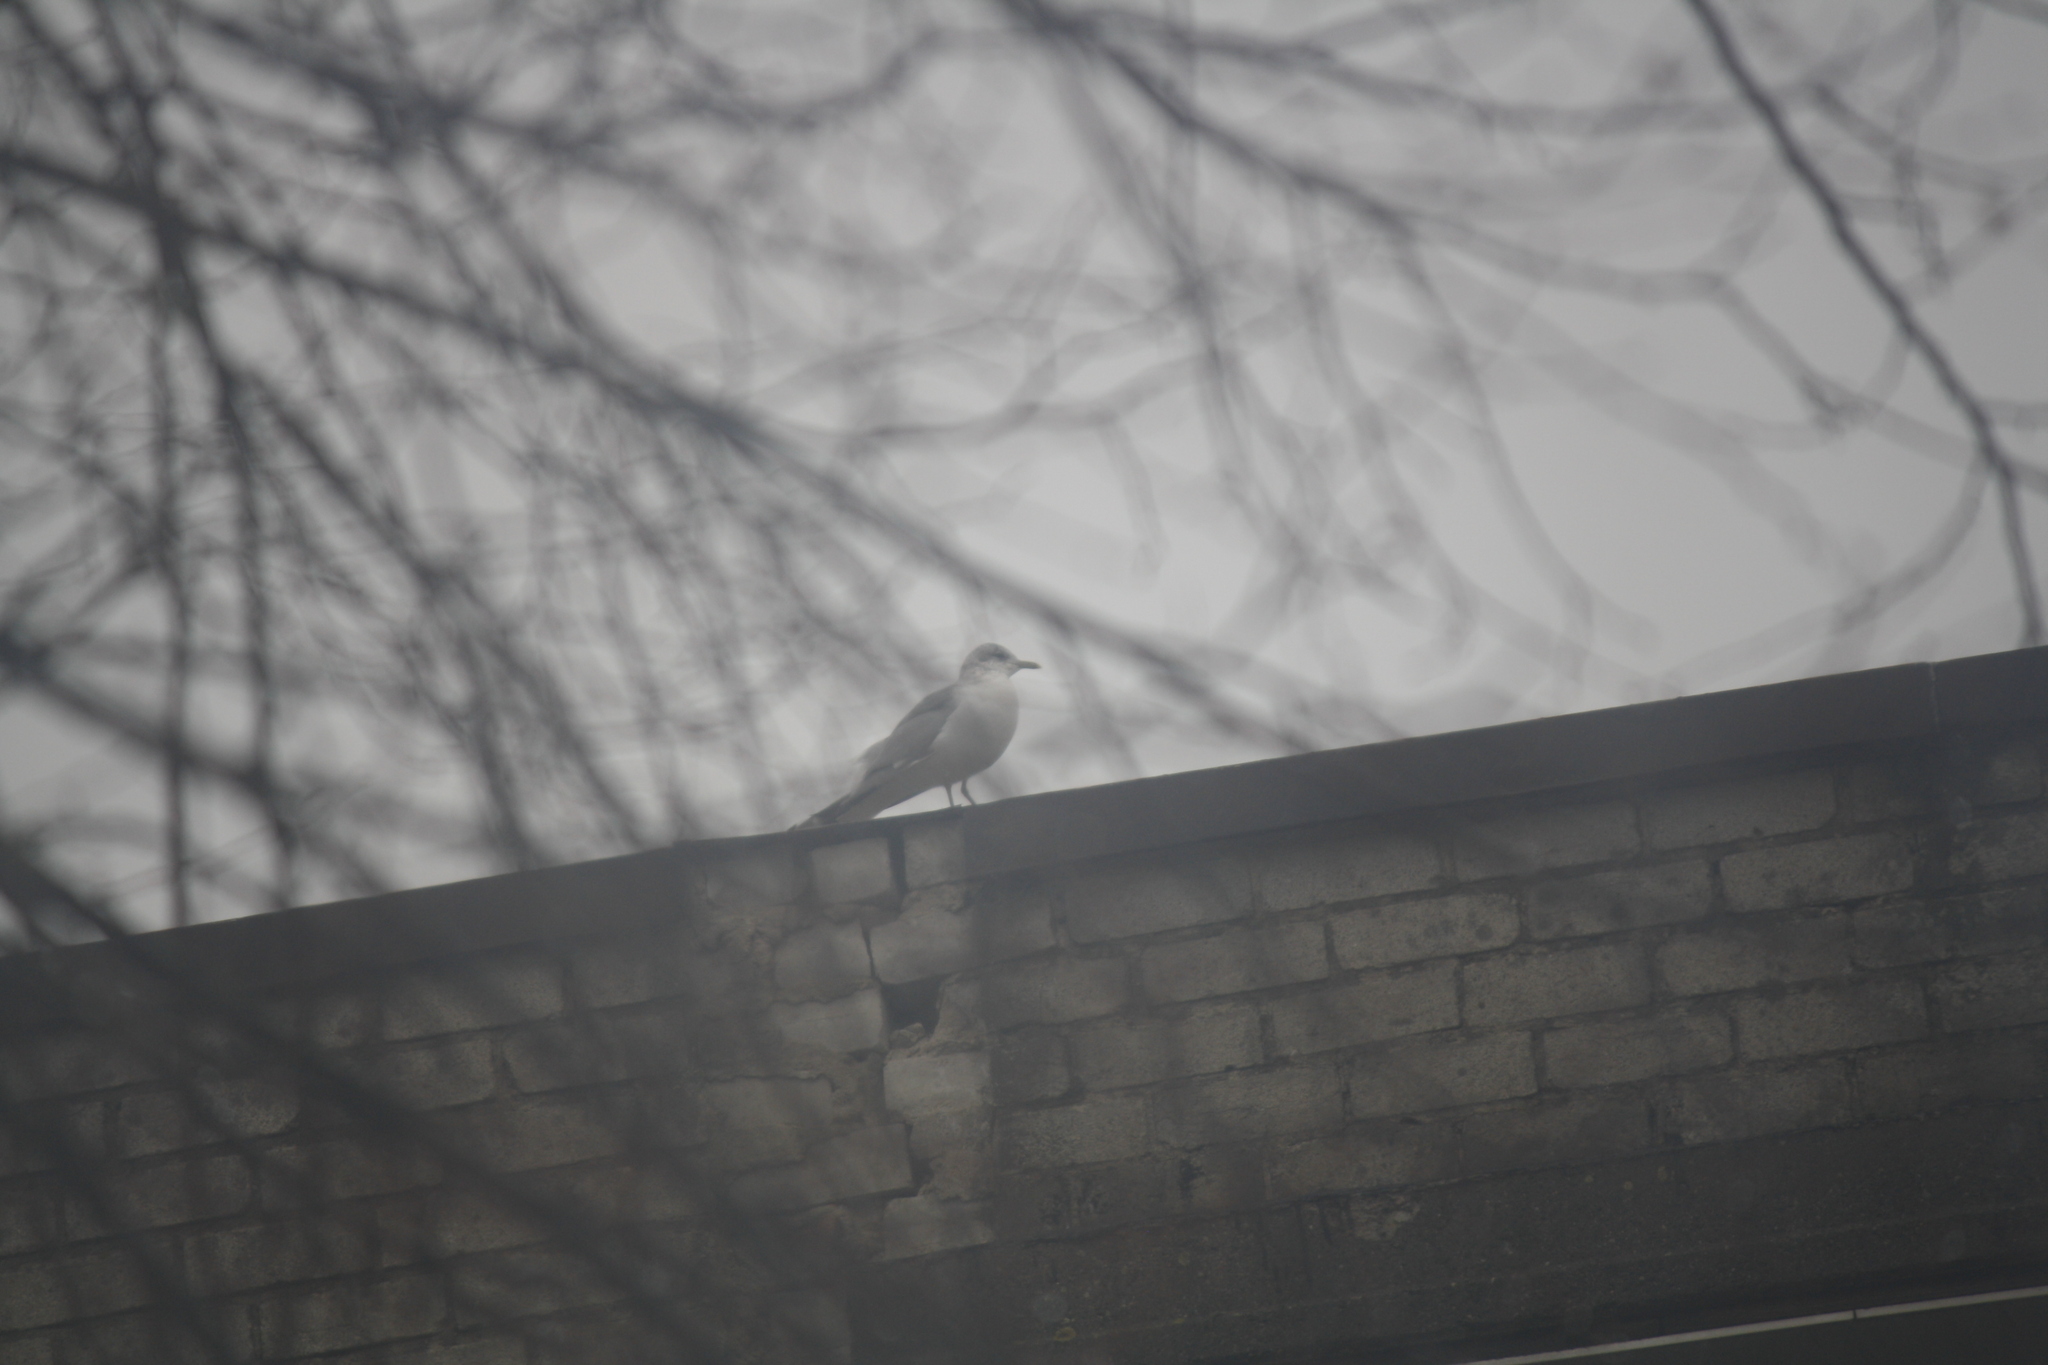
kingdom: Animalia
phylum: Chordata
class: Aves
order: Charadriiformes
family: Laridae
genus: Larus
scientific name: Larus canus
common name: Mew gull
